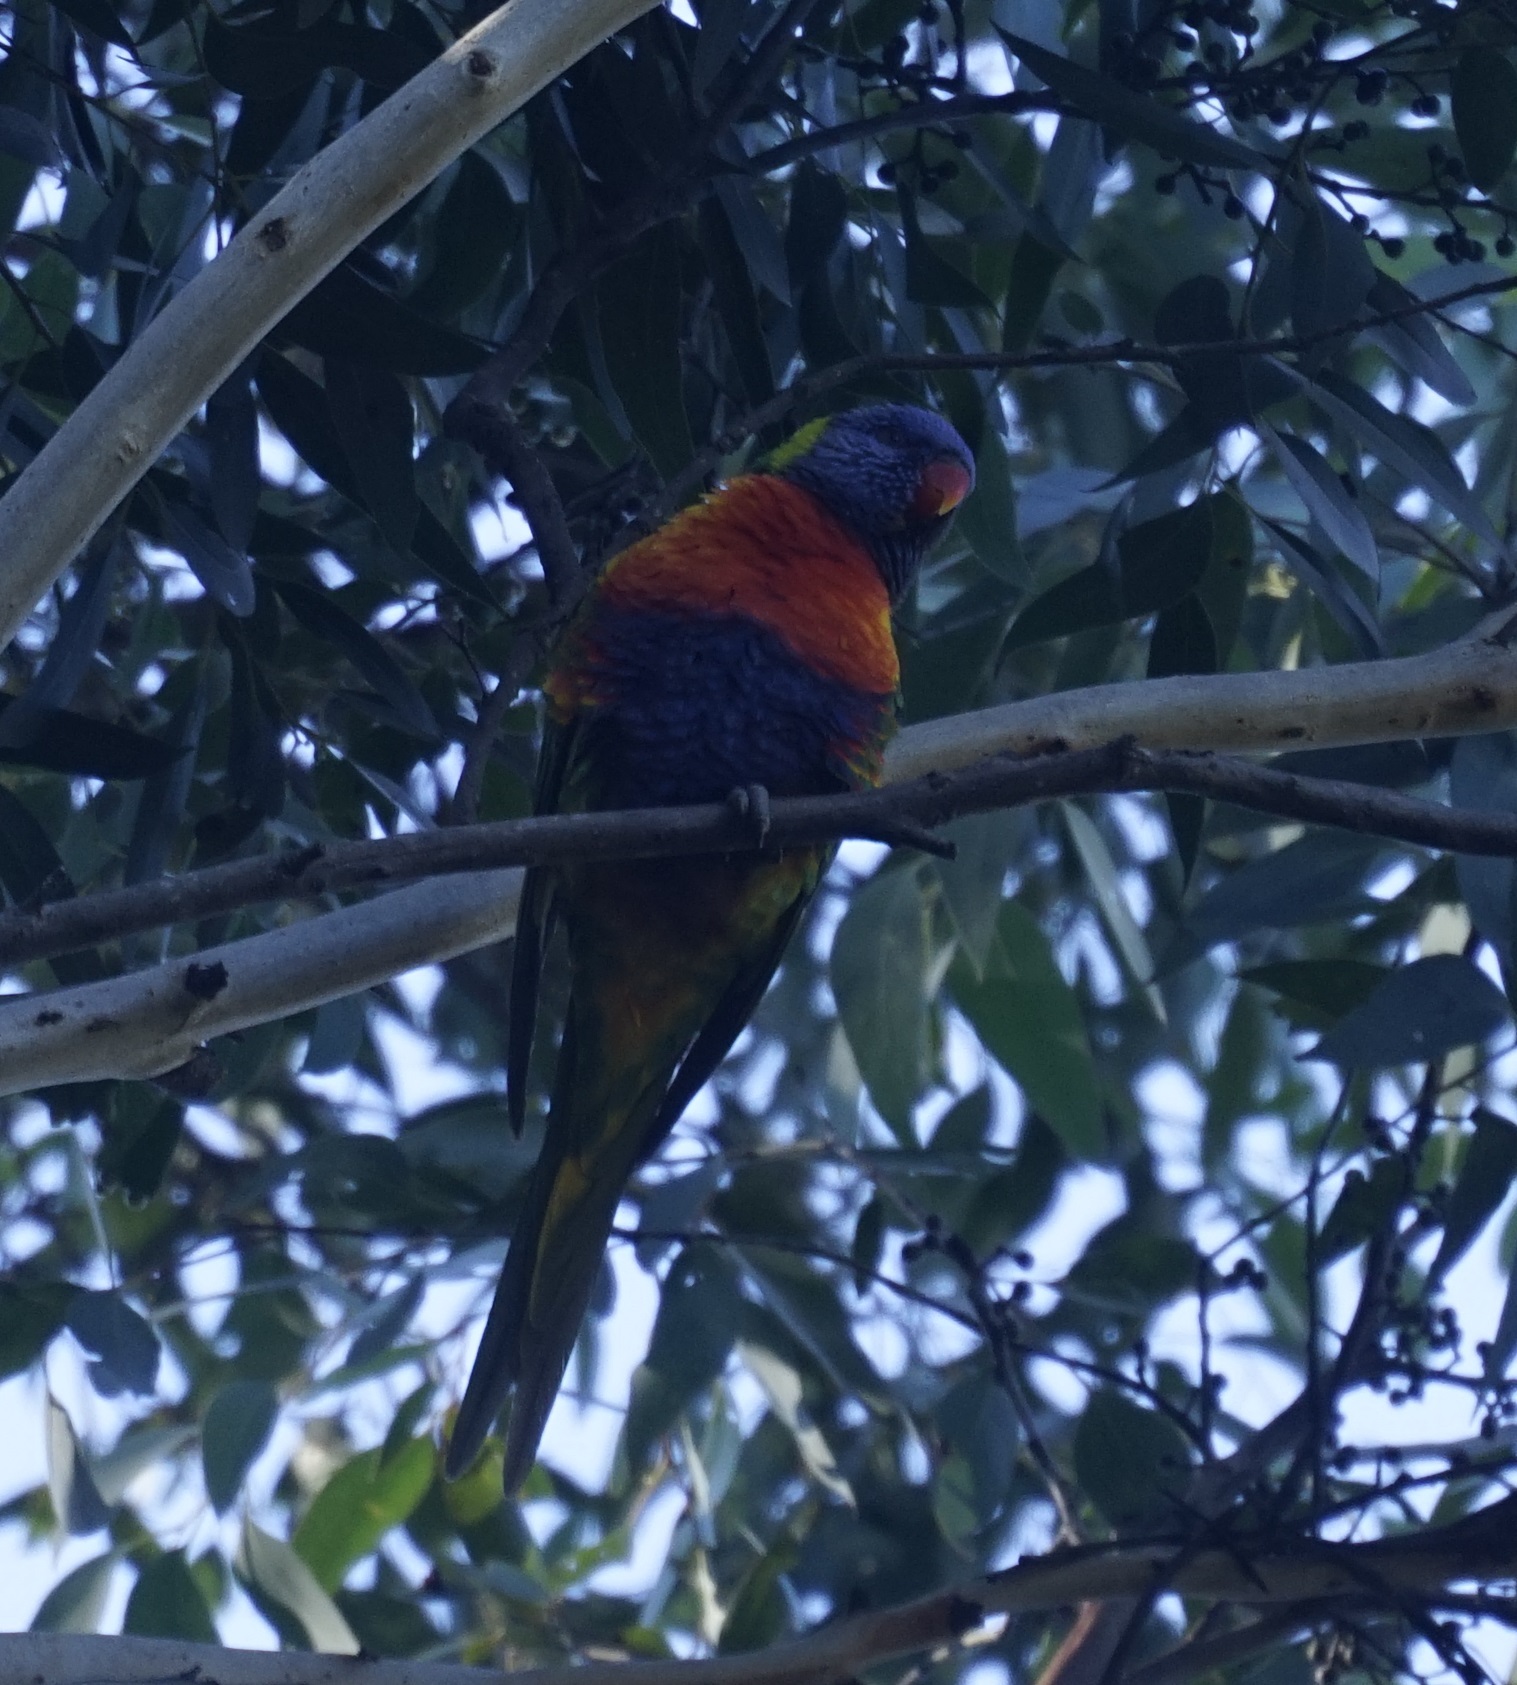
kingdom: Animalia
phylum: Chordata
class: Aves
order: Psittaciformes
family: Psittacidae
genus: Trichoglossus
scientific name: Trichoglossus haematodus
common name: Coconut lorikeet
